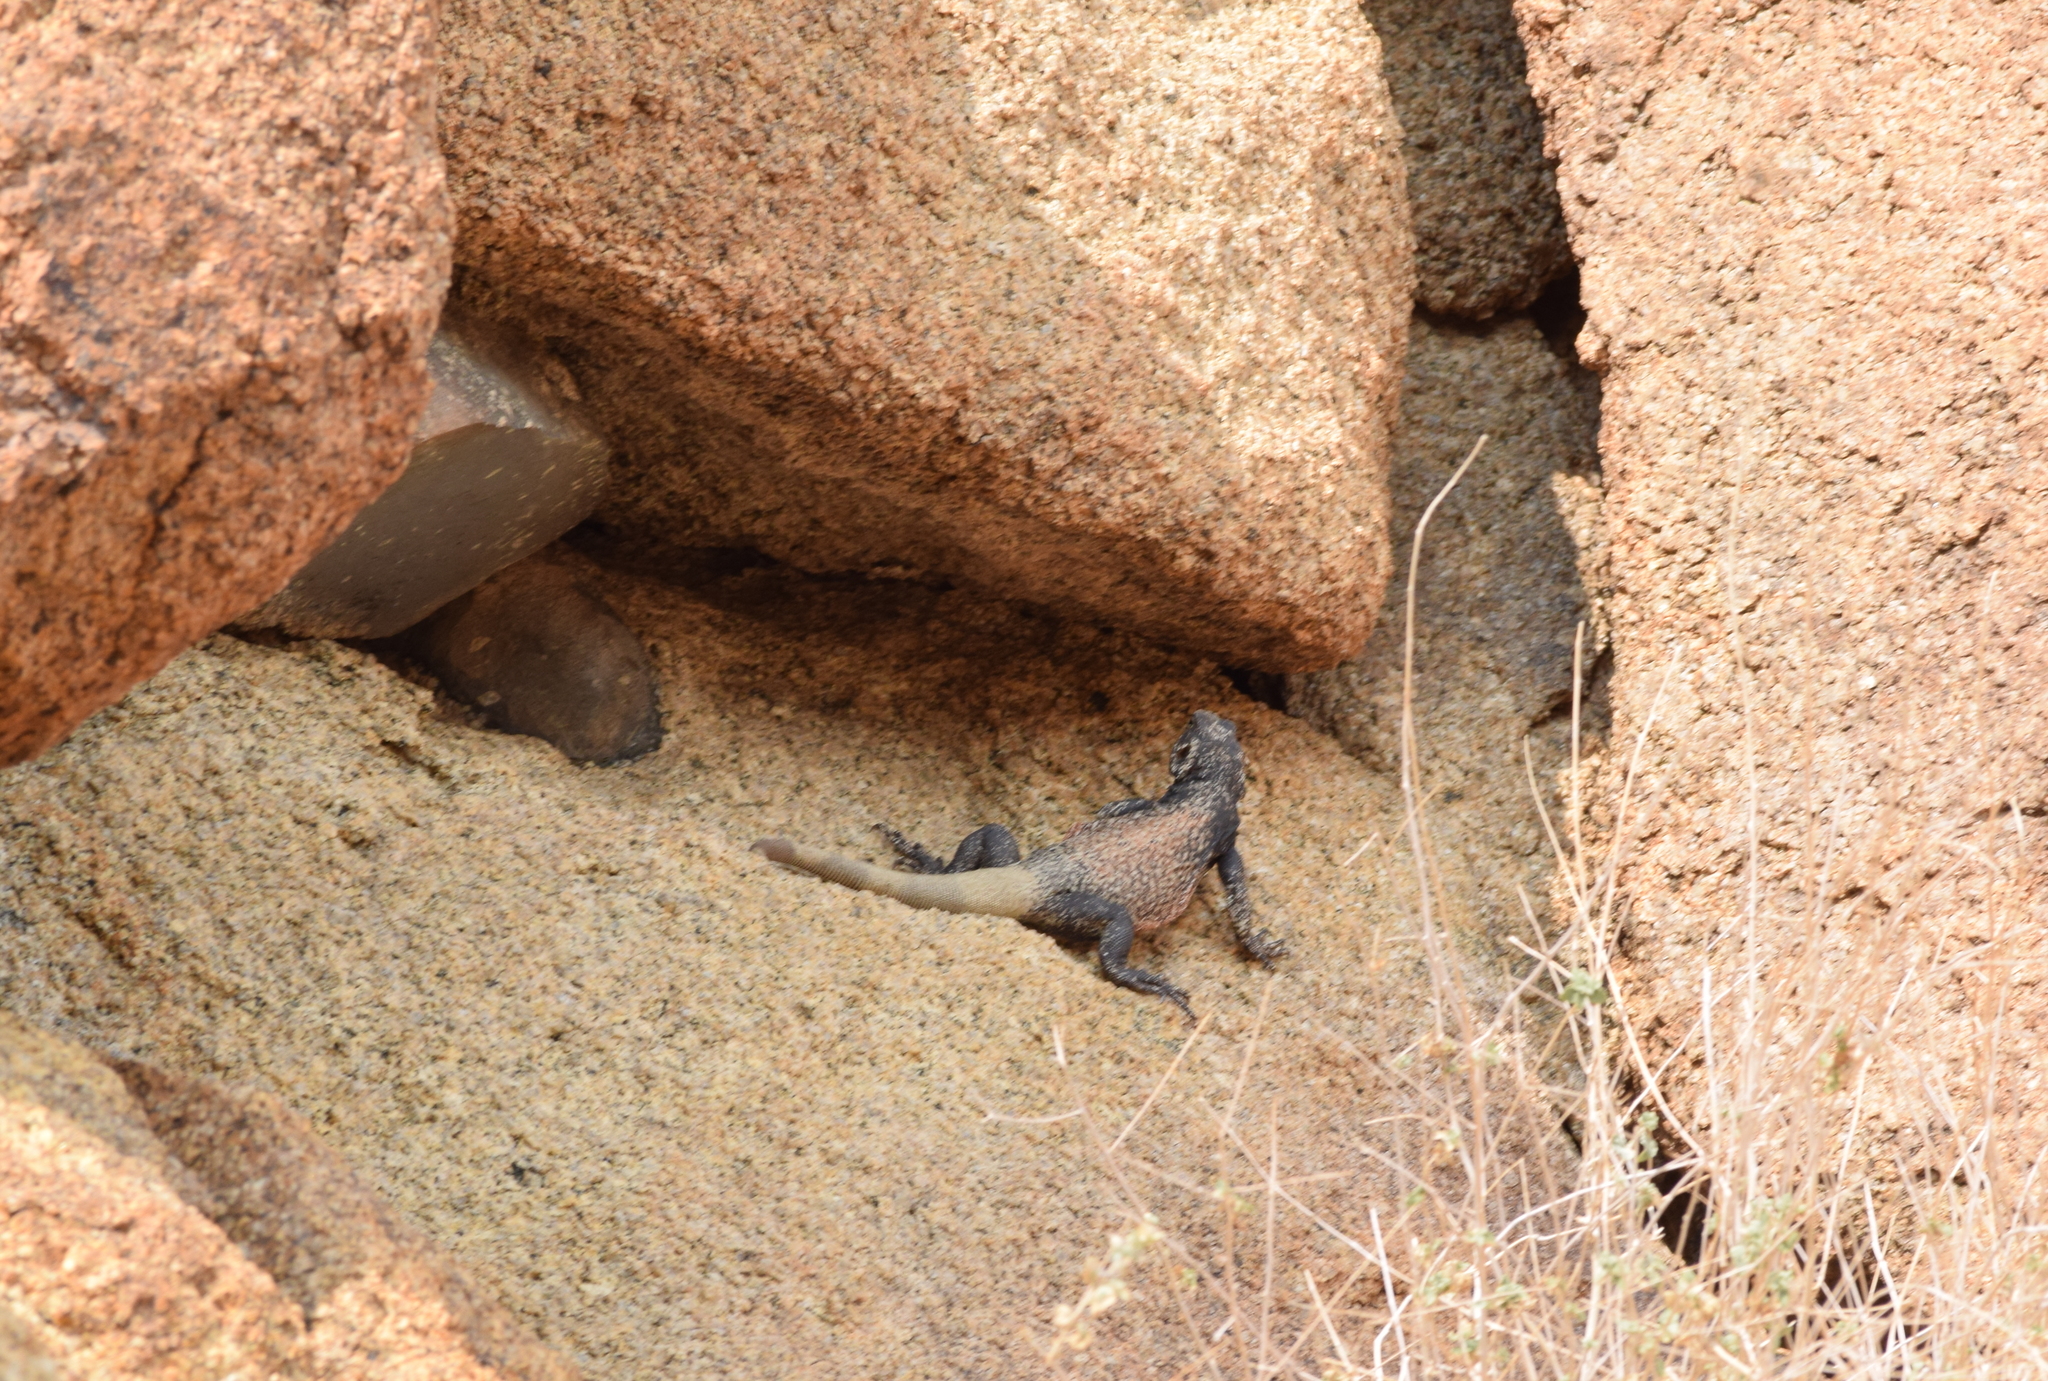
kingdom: Animalia
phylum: Chordata
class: Squamata
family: Iguanidae
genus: Sauromalus
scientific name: Sauromalus ater
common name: Northern chuckwalla
